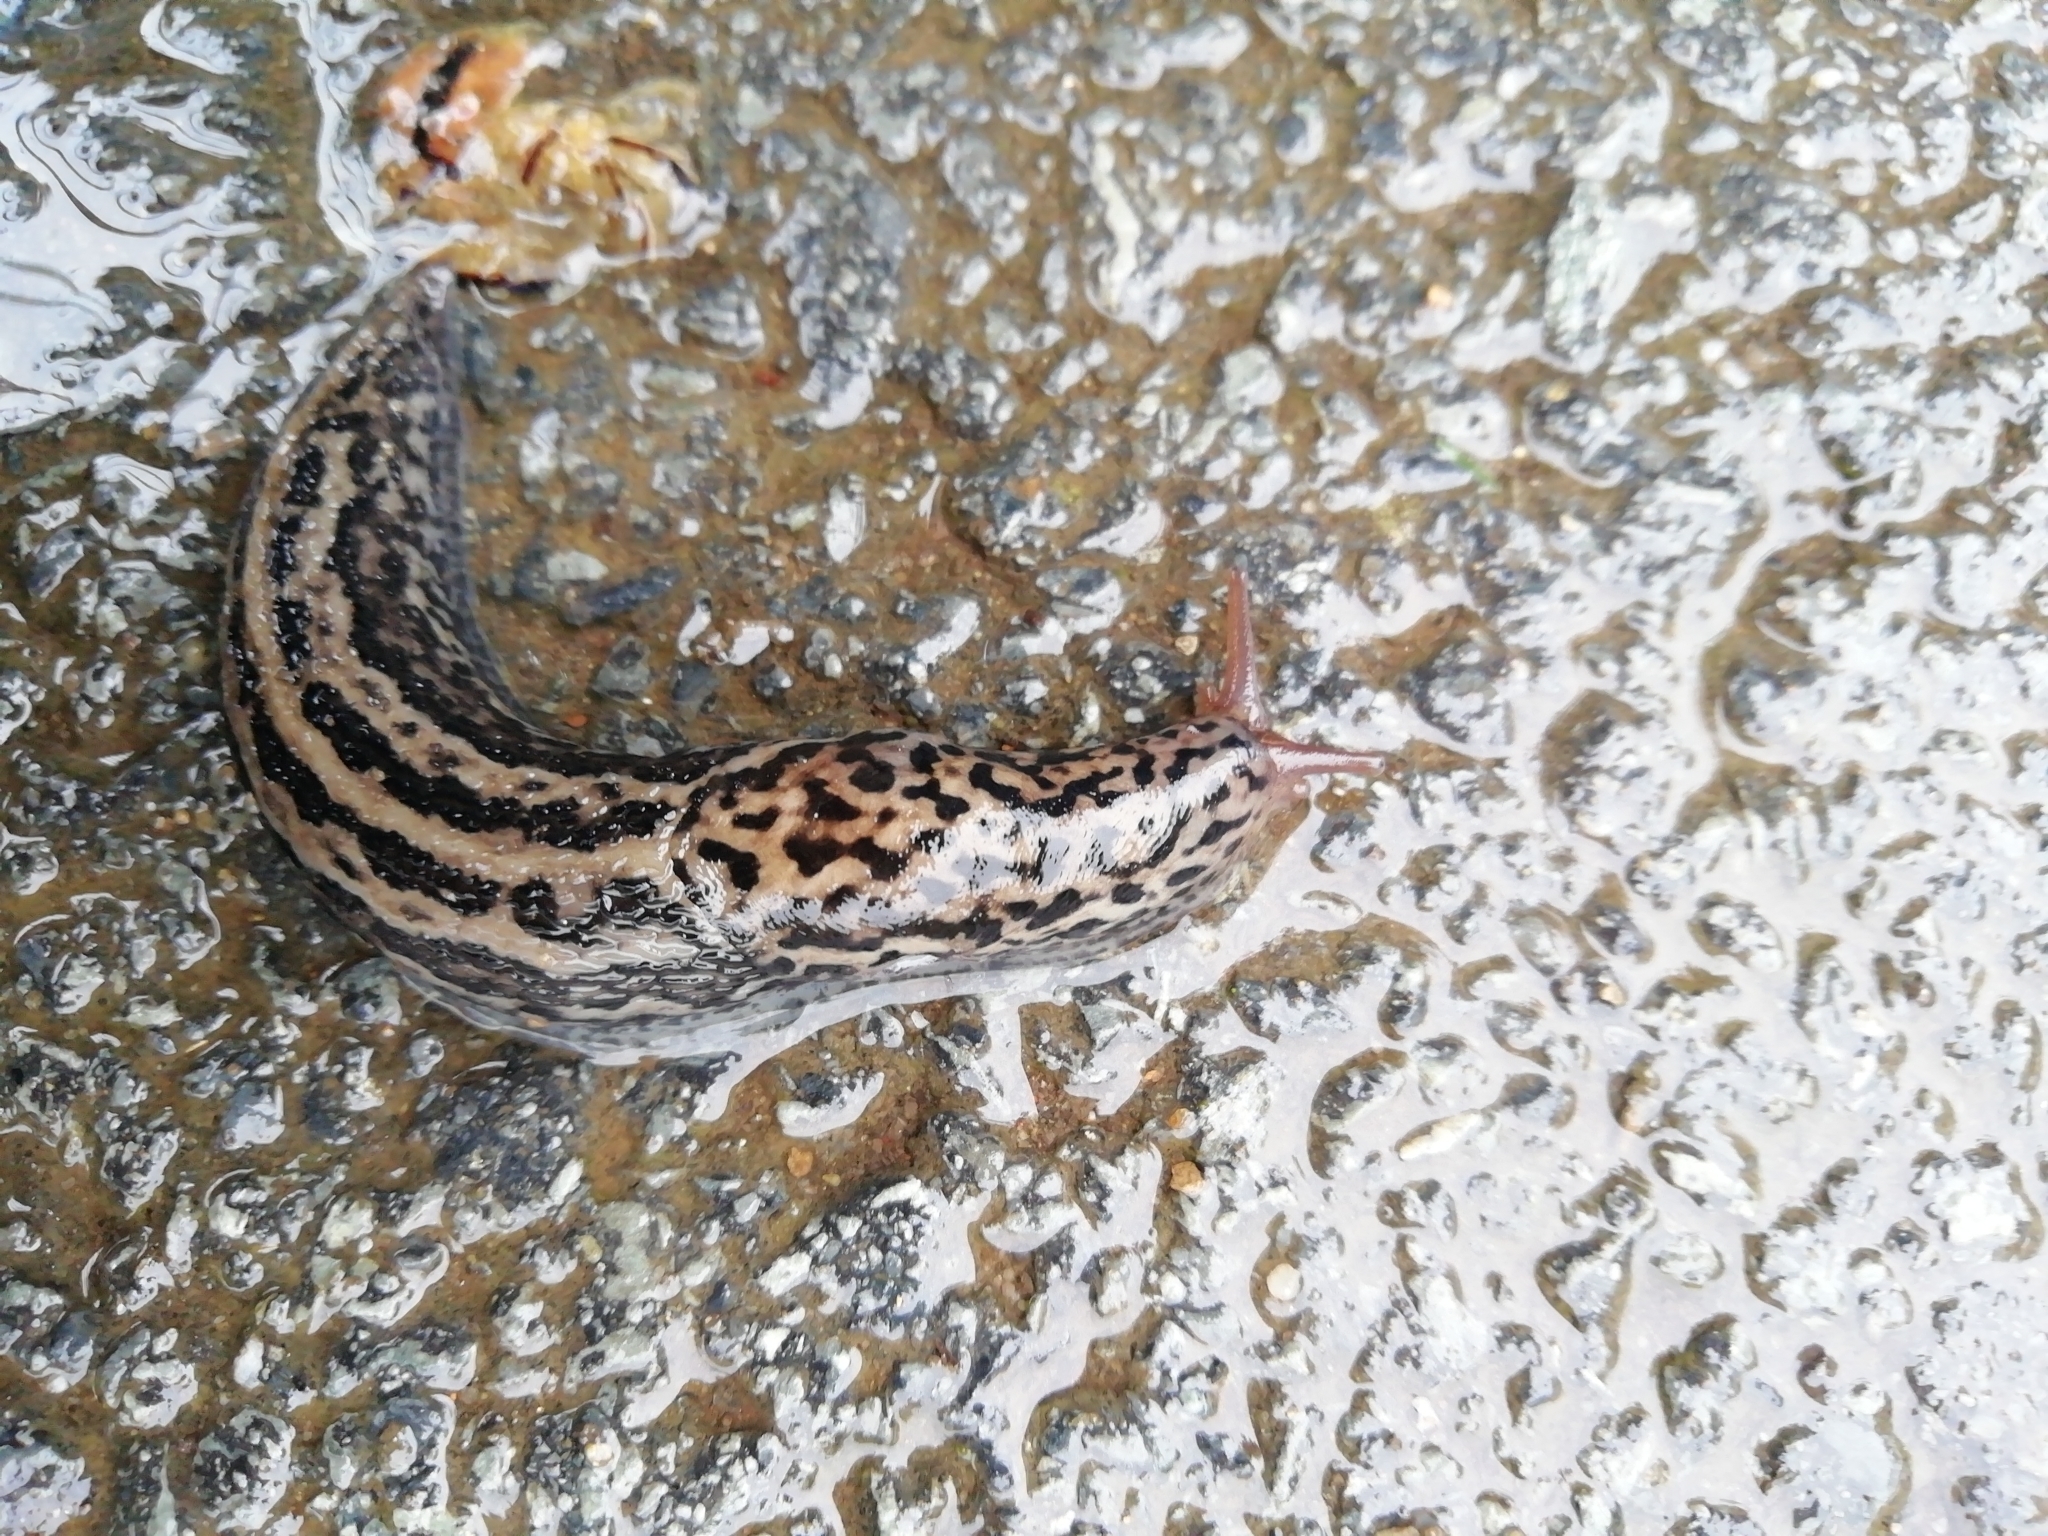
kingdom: Animalia
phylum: Mollusca
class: Gastropoda
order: Stylommatophora
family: Limacidae
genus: Limax
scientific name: Limax maximus
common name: Great grey slug
